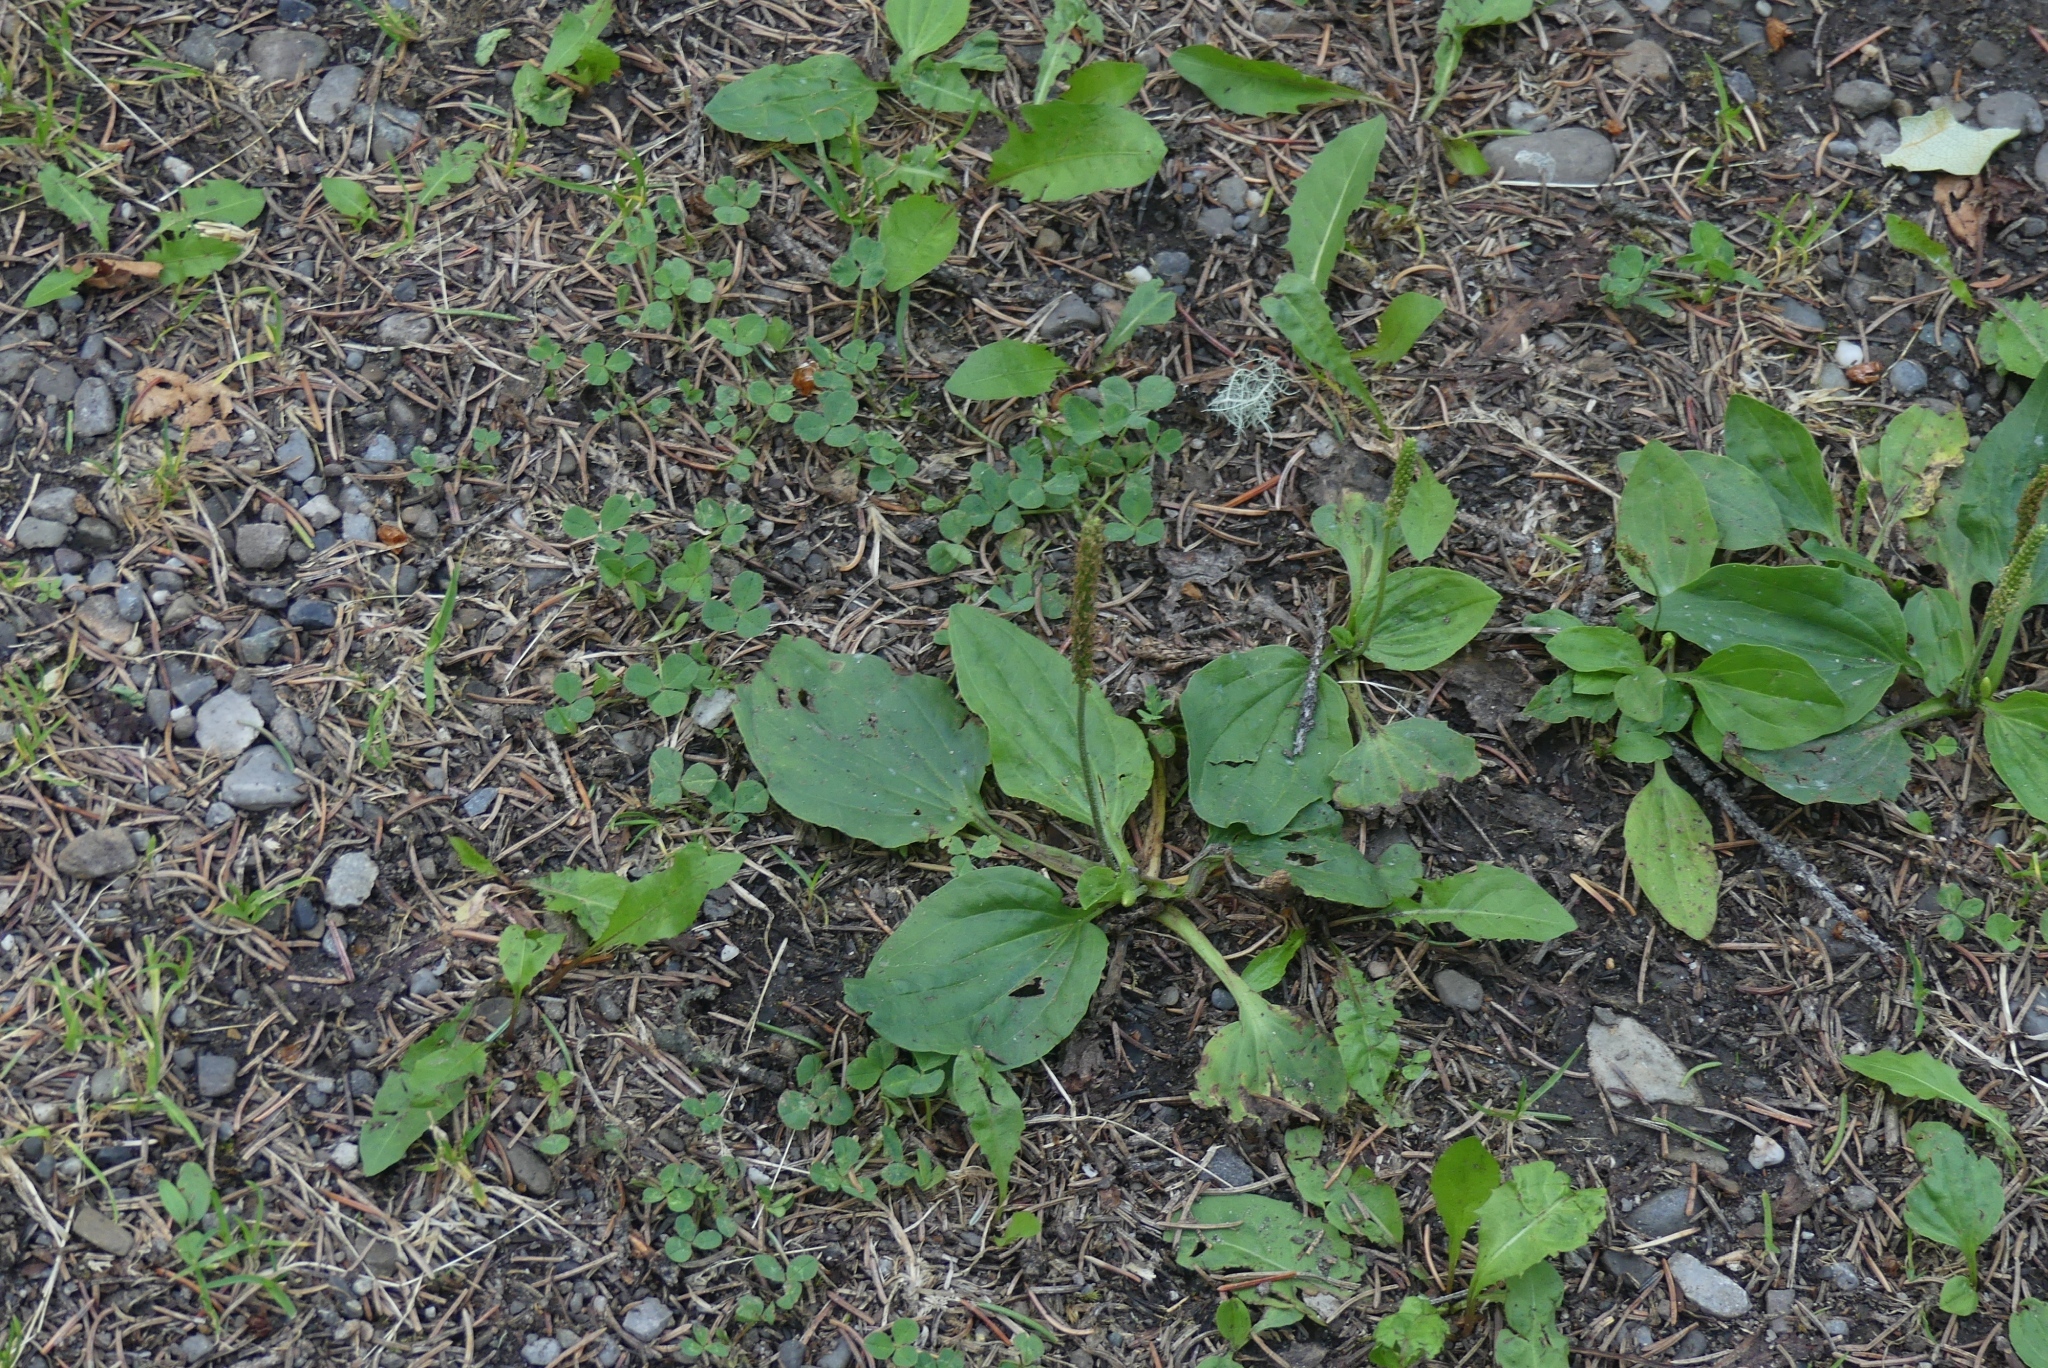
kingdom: Plantae
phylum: Tracheophyta
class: Magnoliopsida
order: Lamiales
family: Plantaginaceae
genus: Plantago
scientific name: Plantago major
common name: Common plantain
